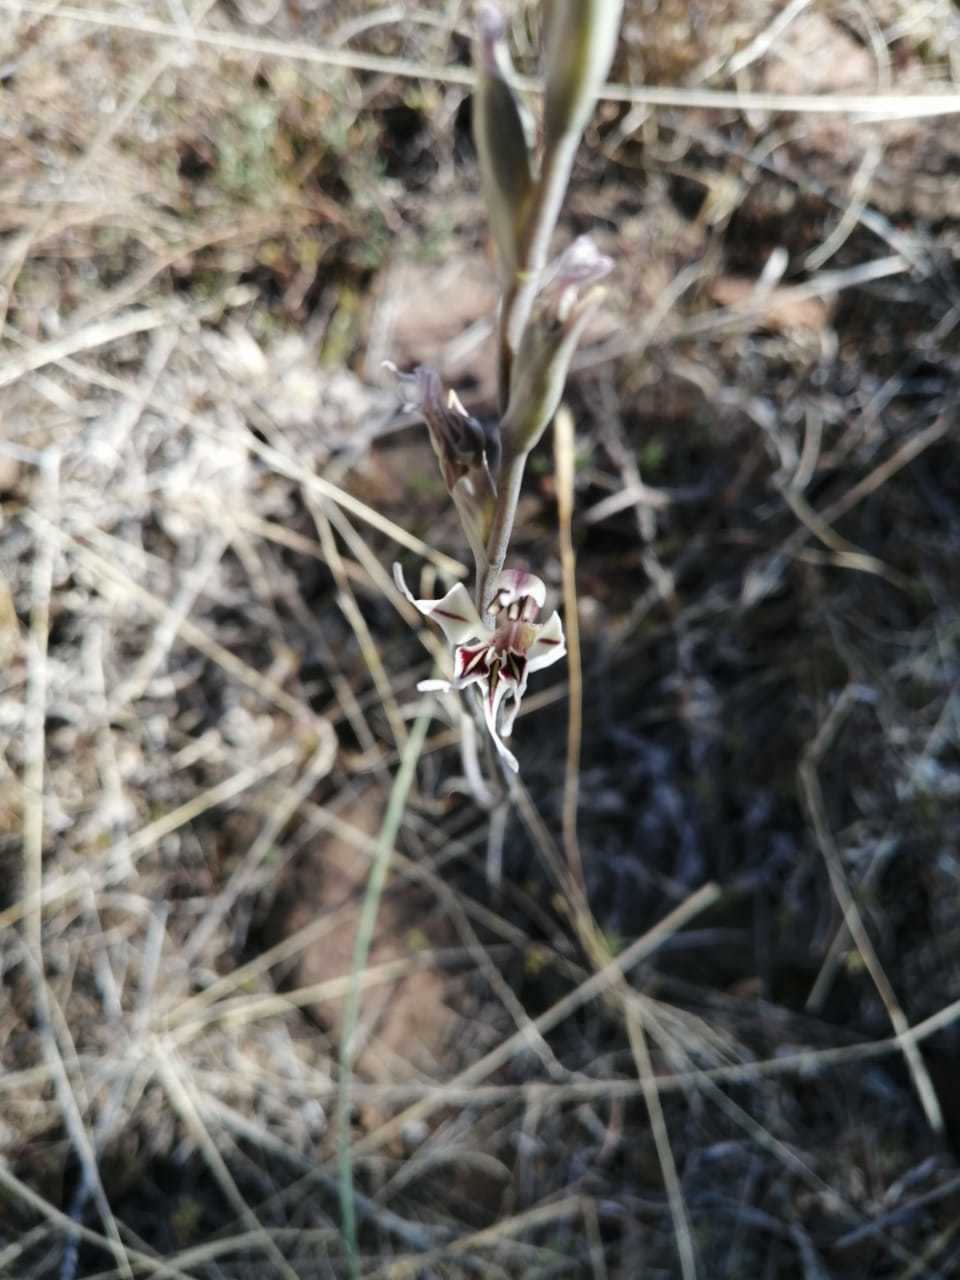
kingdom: Plantae
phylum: Tracheophyta
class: Liliopsida
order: Asparagales
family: Iridaceae
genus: Gladiolus
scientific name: Gladiolus permeabilis
